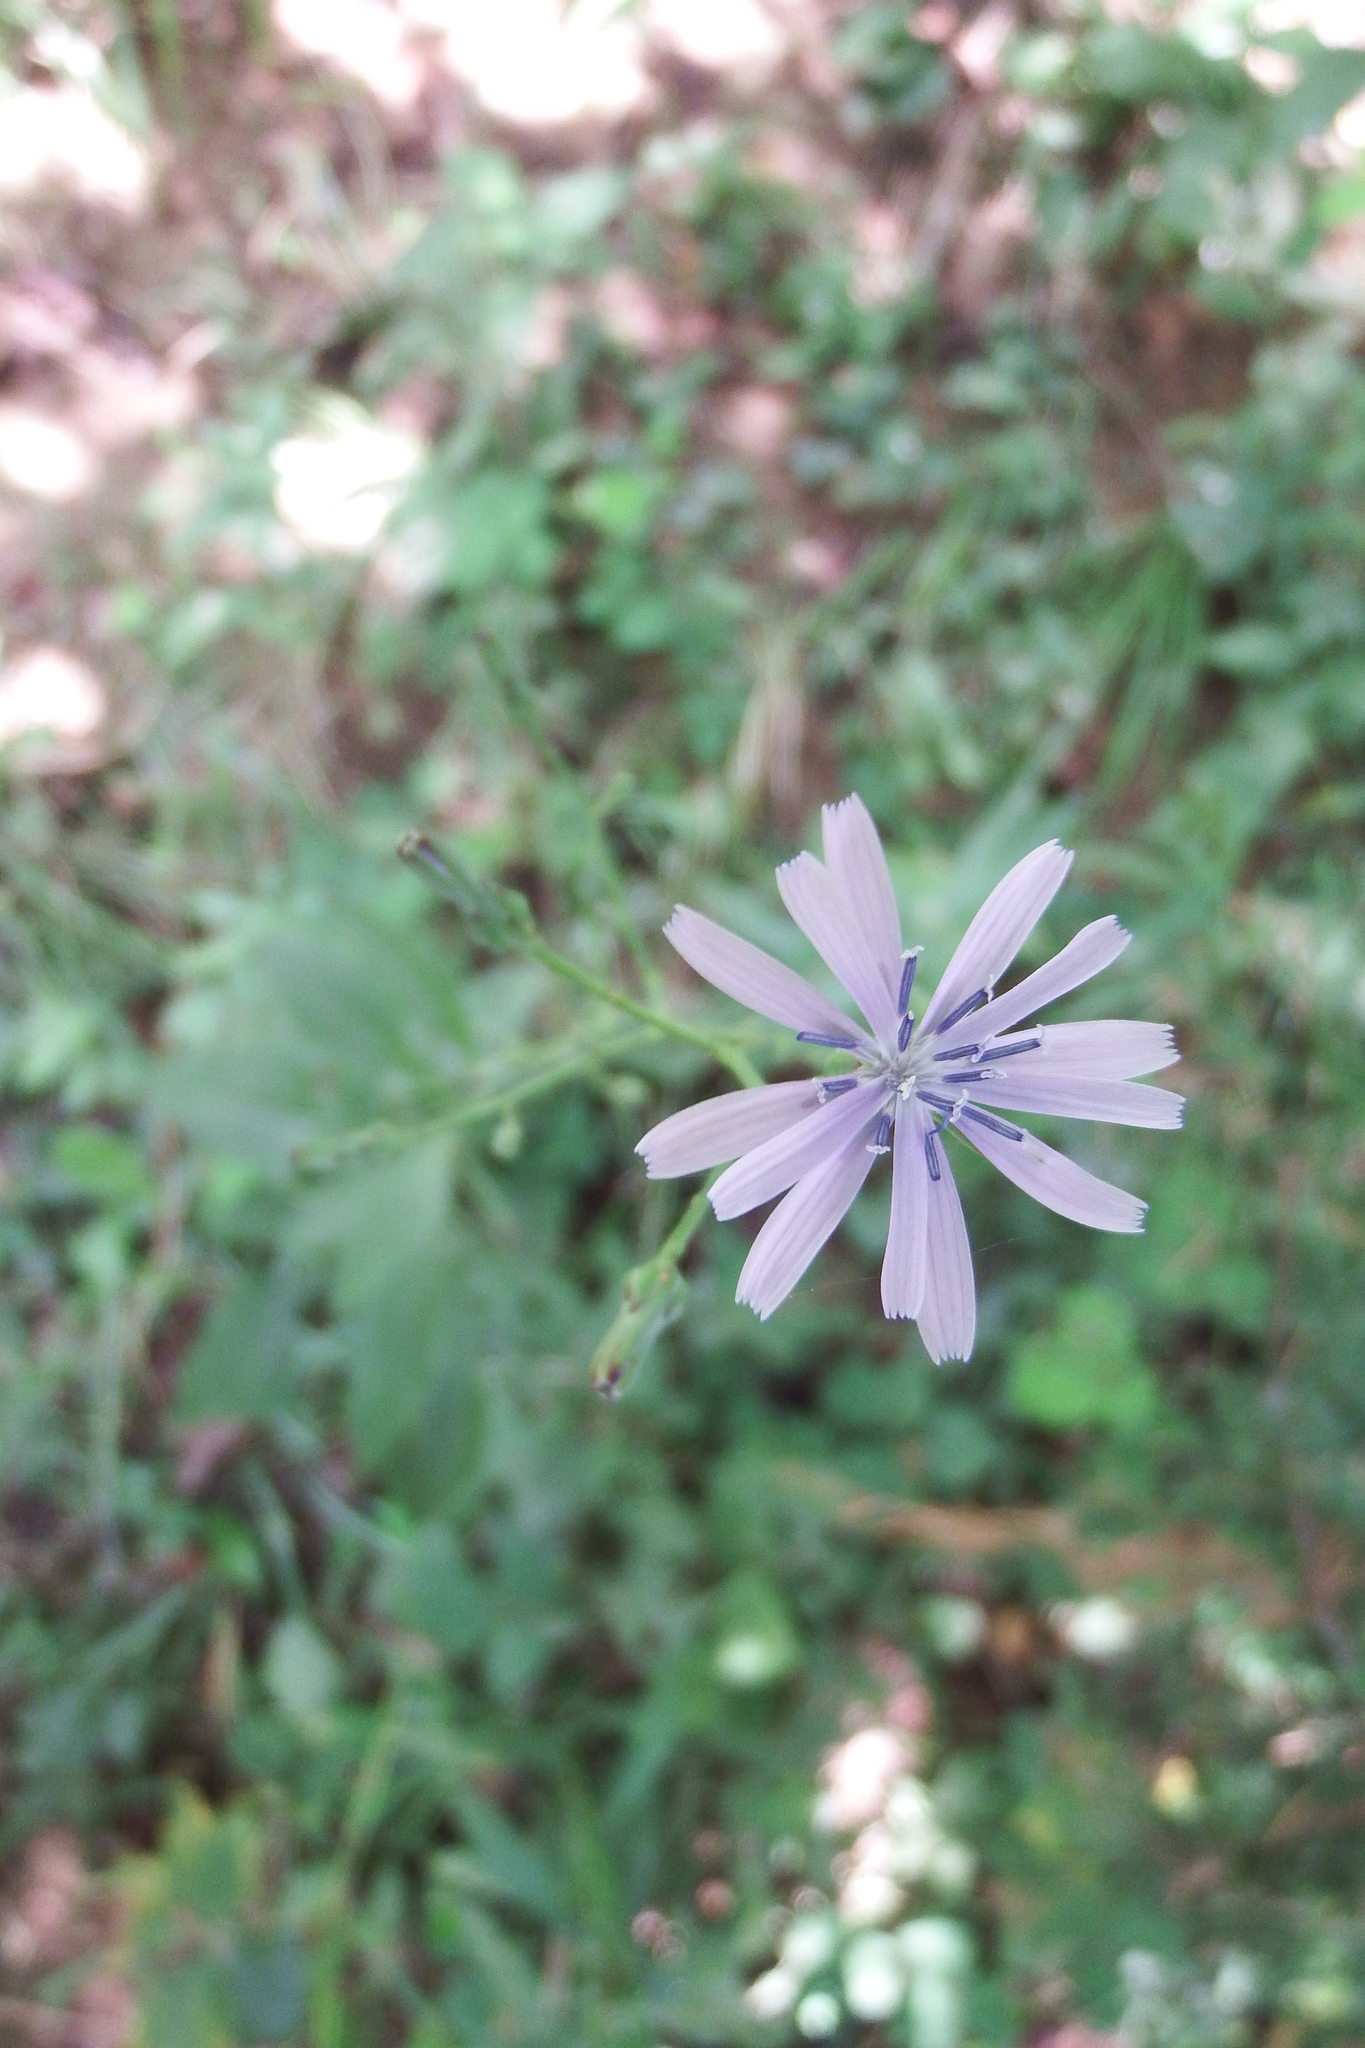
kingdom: Plantae
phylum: Tracheophyta
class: Magnoliopsida
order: Asterales
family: Asteraceae
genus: Lactuca
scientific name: Lactuca floridana
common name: Woodland lettuce
